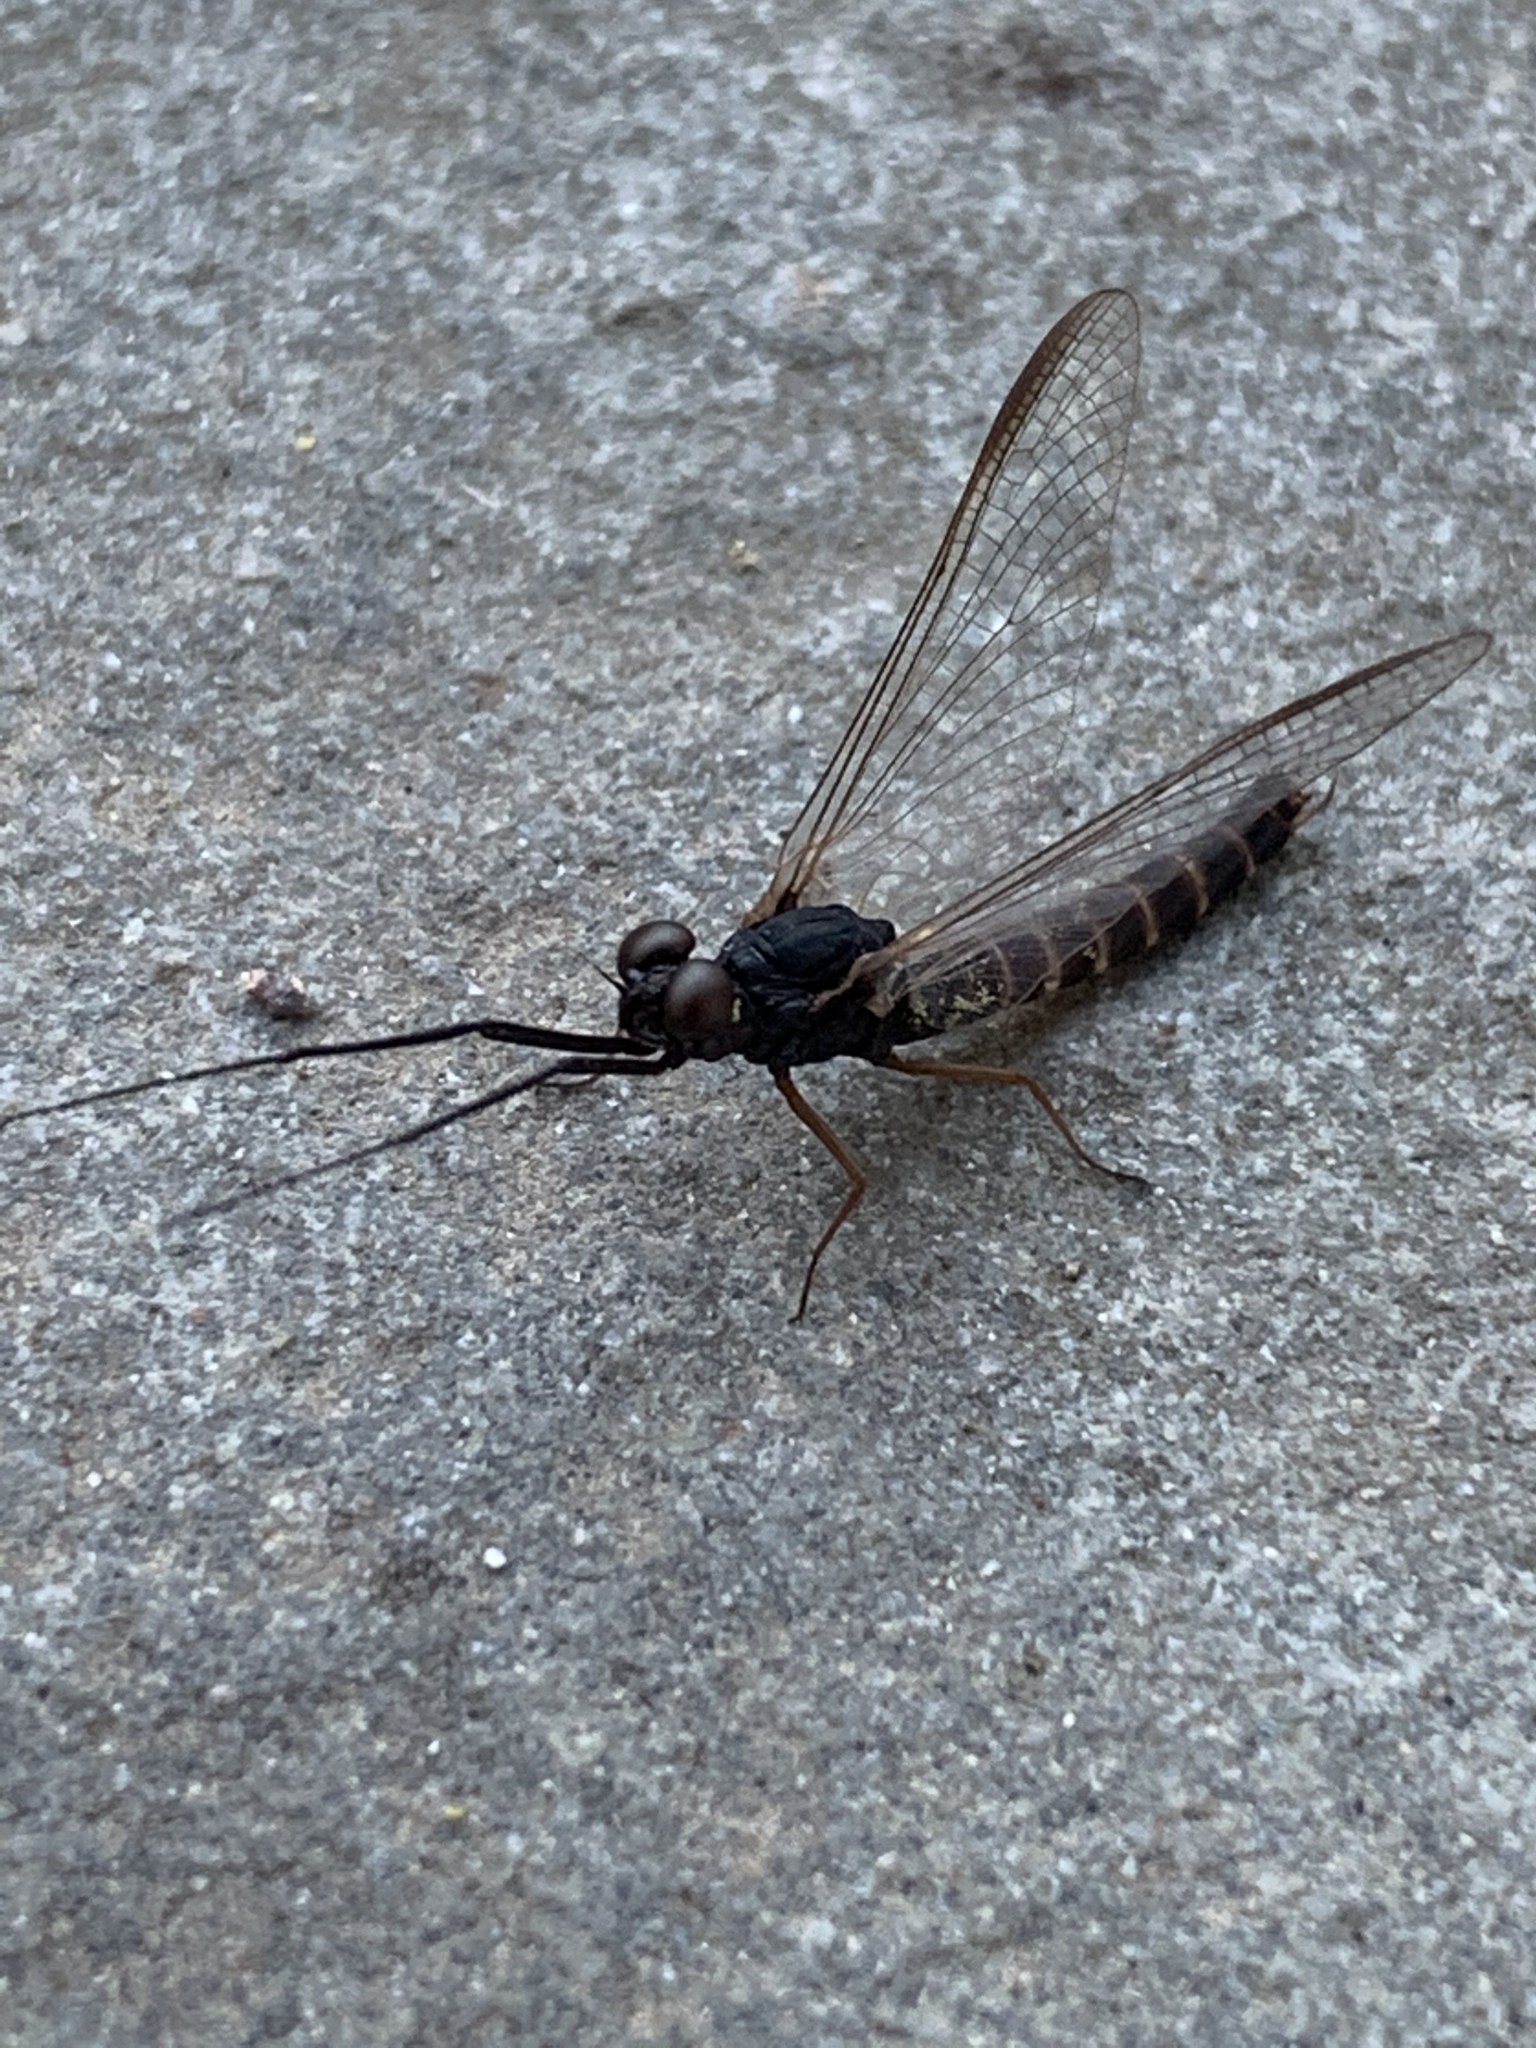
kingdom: Animalia
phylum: Arthropoda
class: Insecta
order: Ephemeroptera
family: Leptophlebiidae
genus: Leptophlebia
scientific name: Leptophlebia intermedia
